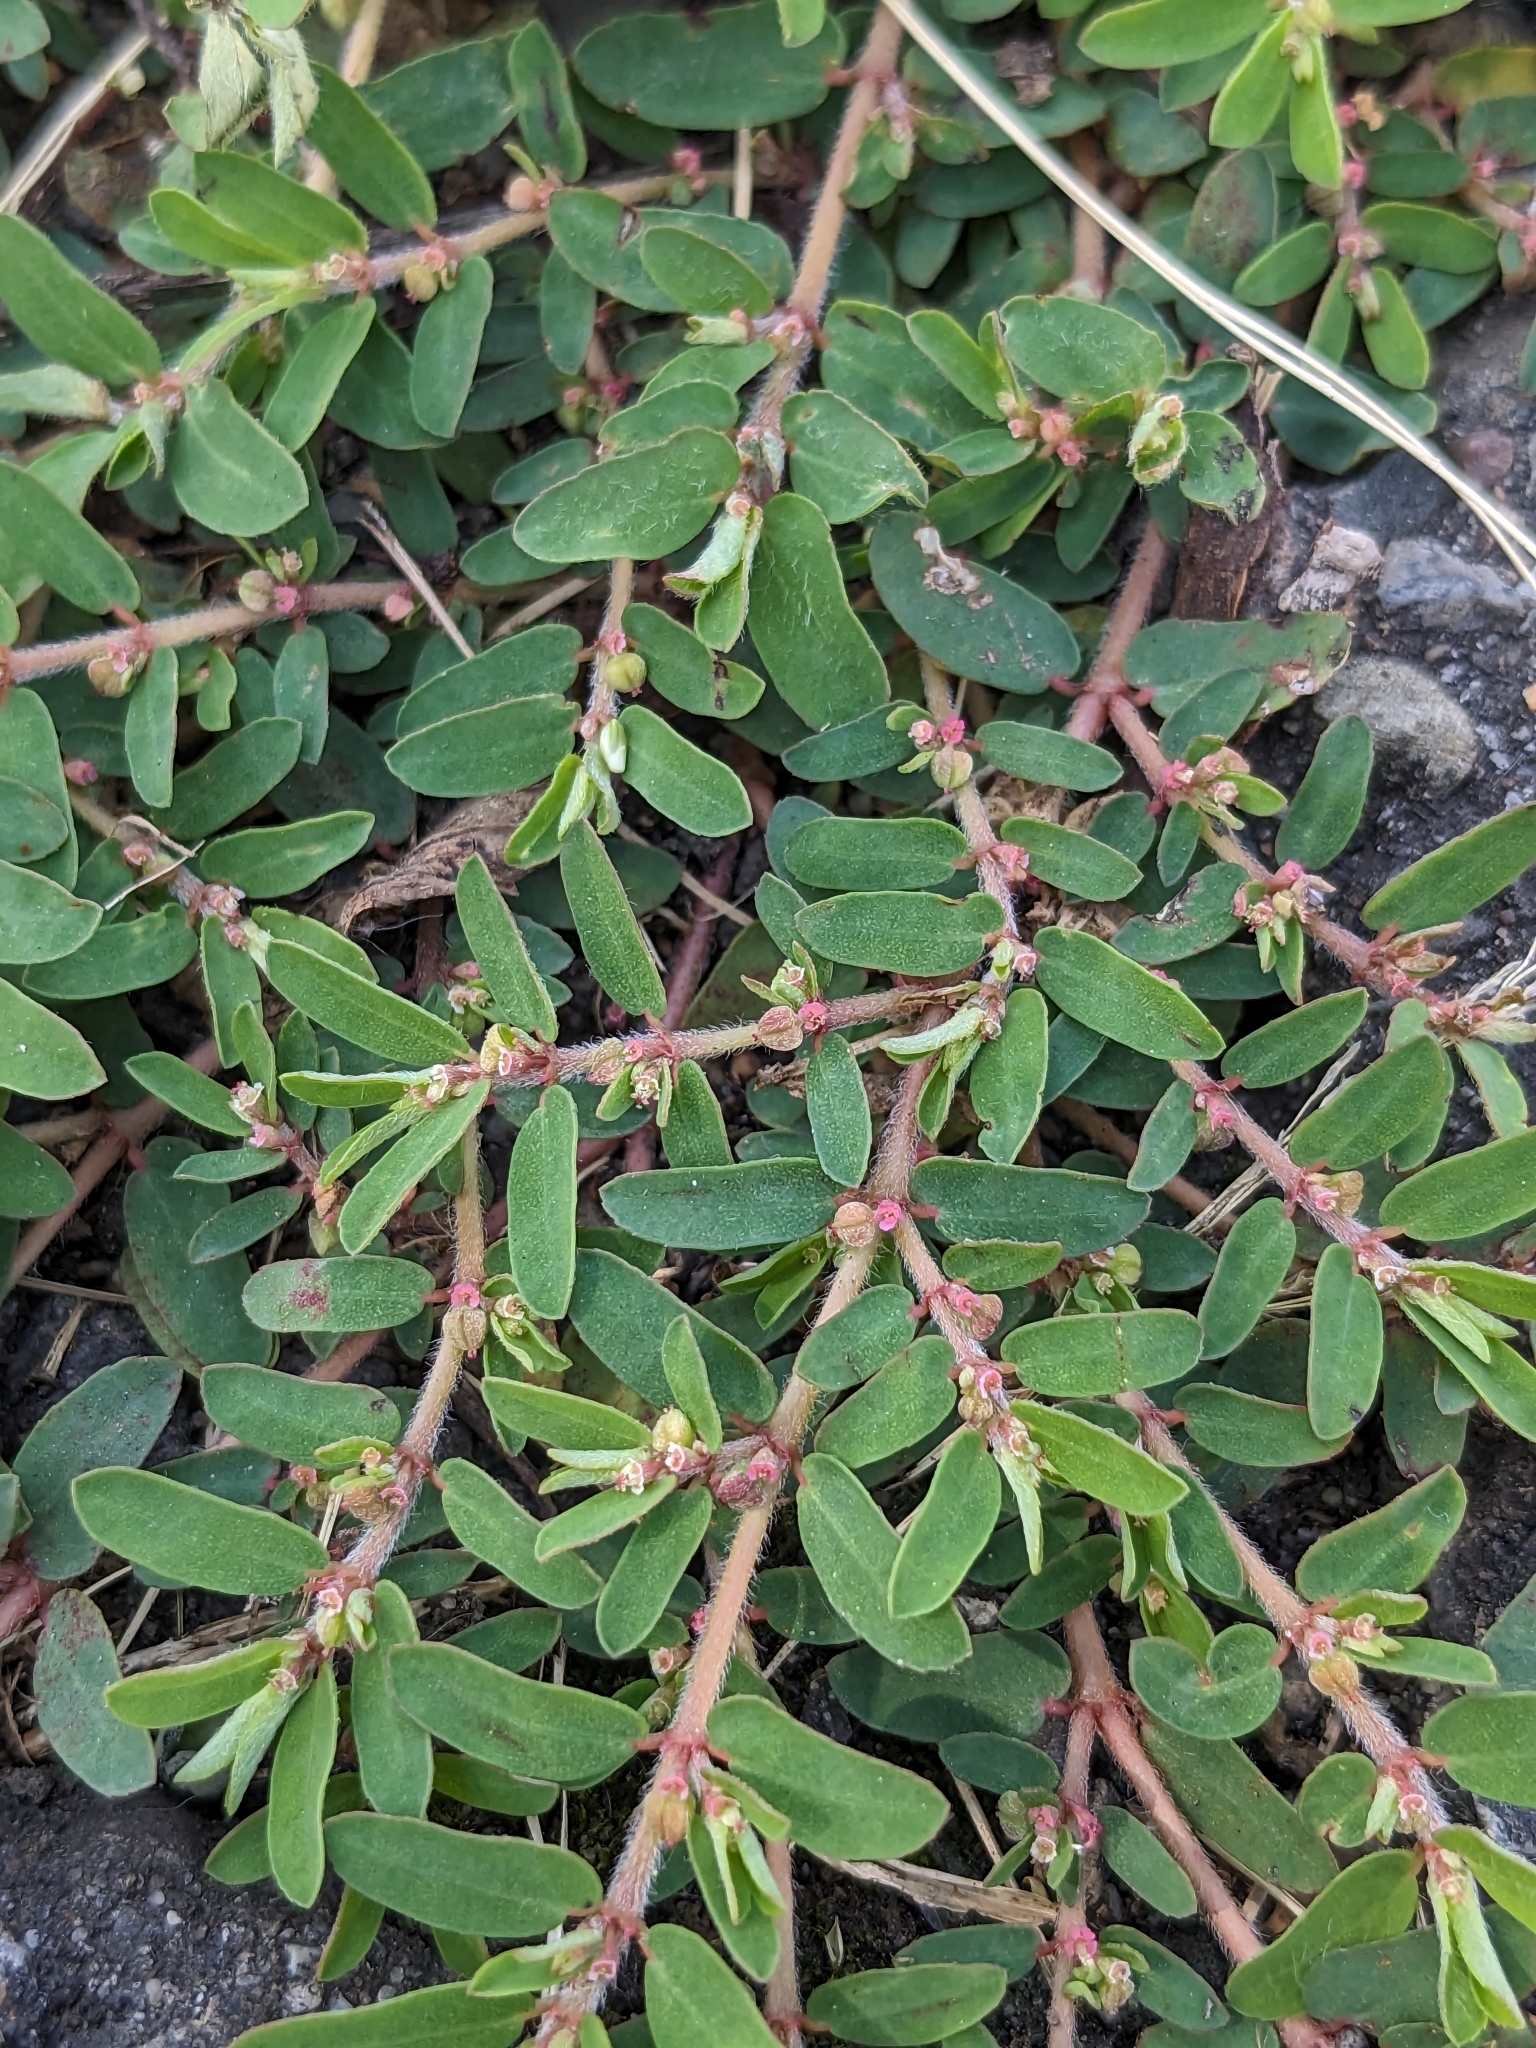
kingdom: Plantae
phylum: Tracheophyta
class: Magnoliopsida
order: Malpighiales
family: Euphorbiaceae
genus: Euphorbia
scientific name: Euphorbia maculata
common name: Spotted spurge
